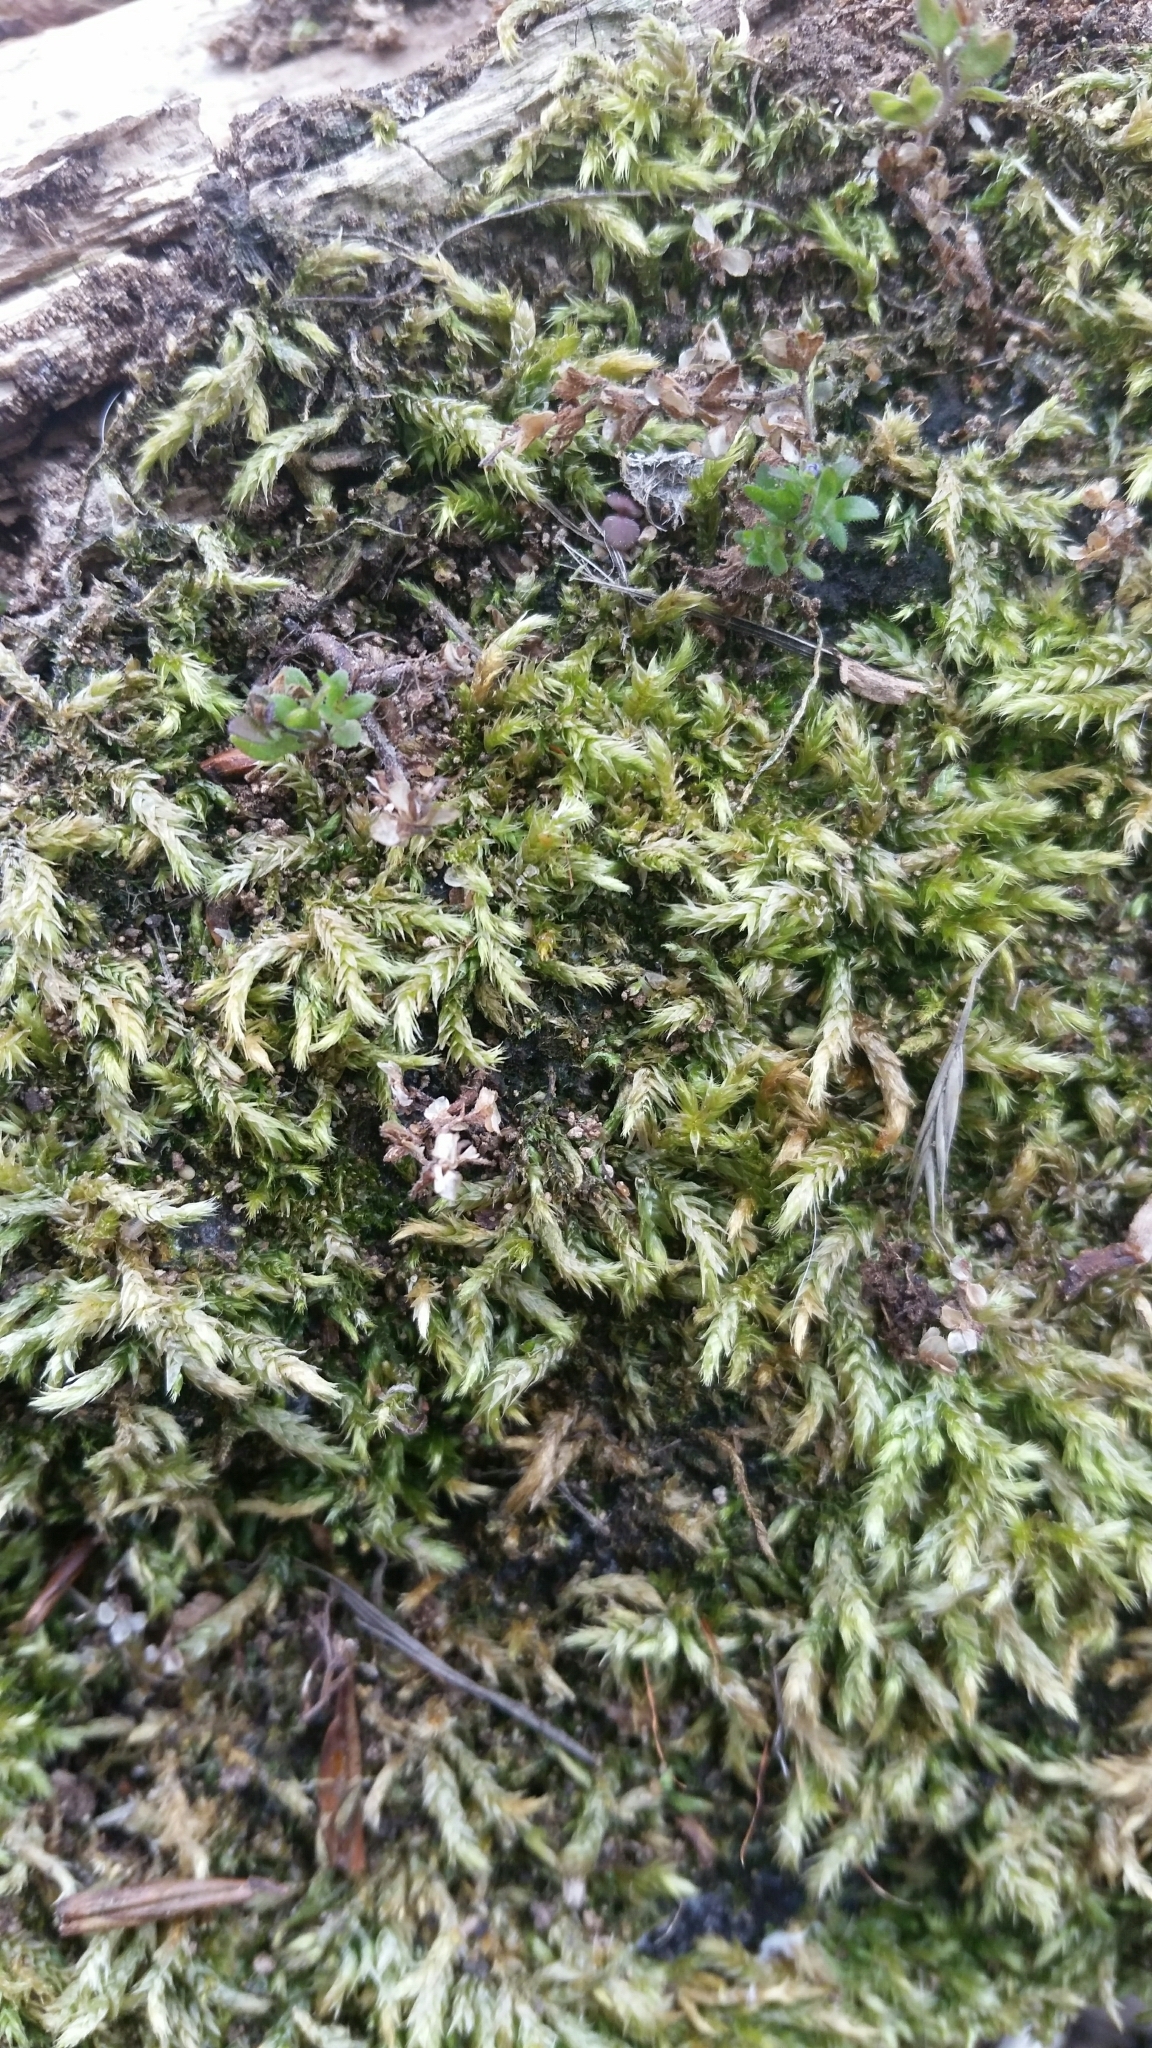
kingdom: Plantae
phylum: Bryophyta
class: Bryopsida
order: Hypnales
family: Brachytheciaceae
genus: Brachythecium
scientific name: Brachythecium rutabulum
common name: Rough-stalked feather-moss
